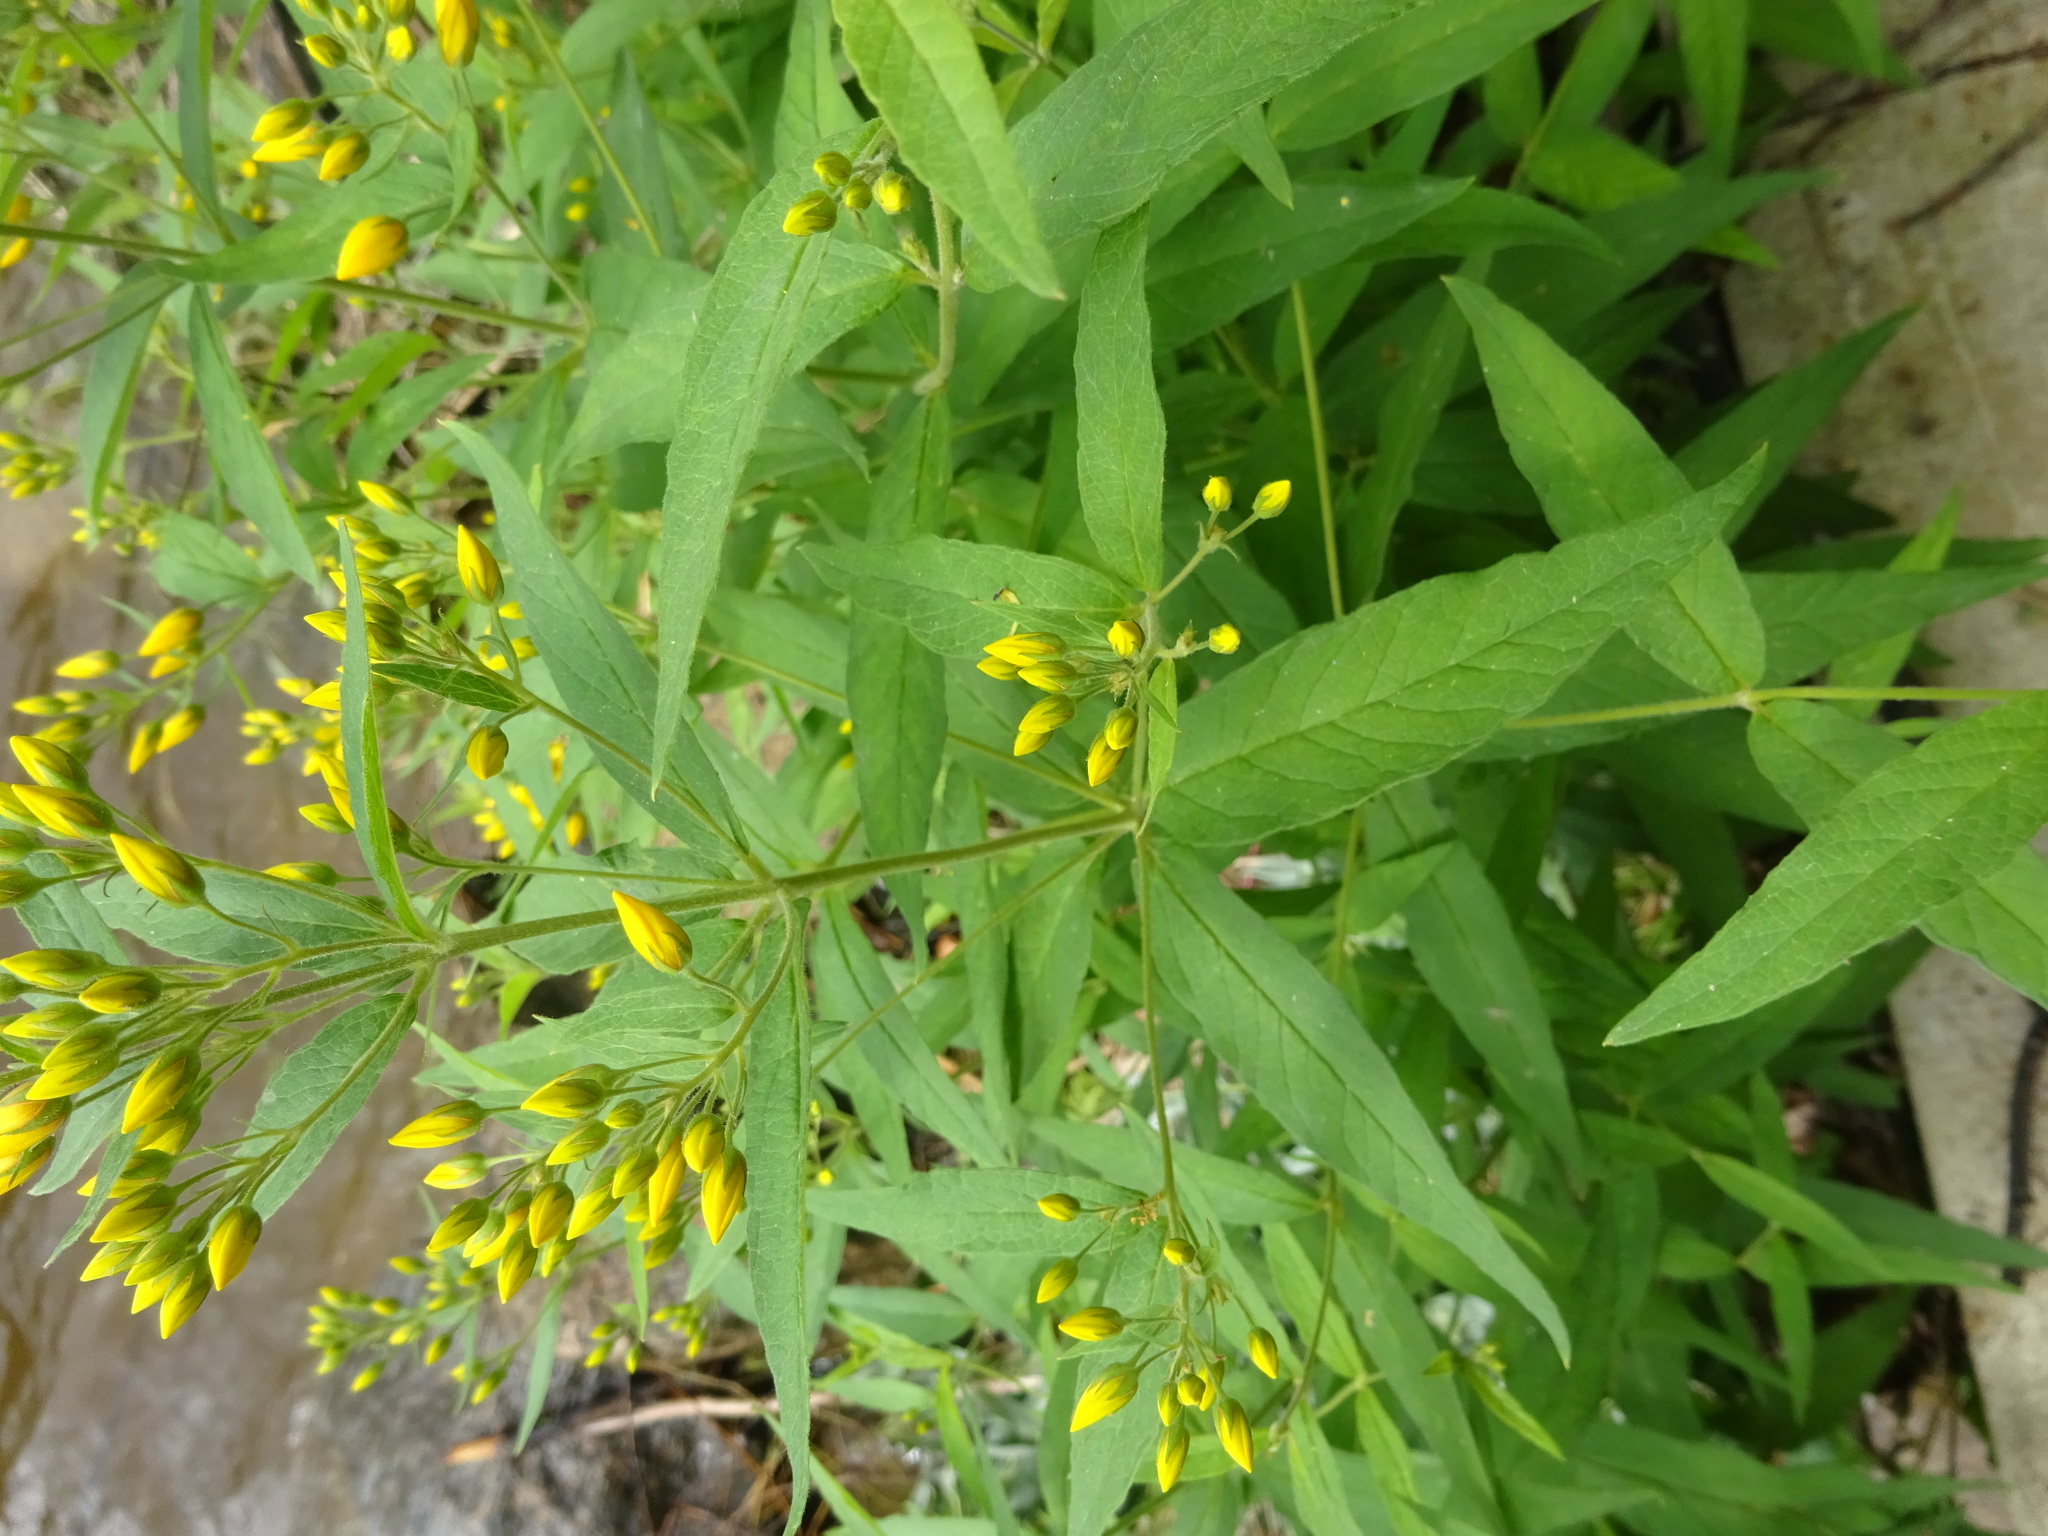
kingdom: Plantae
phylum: Tracheophyta
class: Magnoliopsida
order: Ericales
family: Primulaceae
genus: Lysimachia
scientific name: Lysimachia vulgaris
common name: Yellow loosestrife
